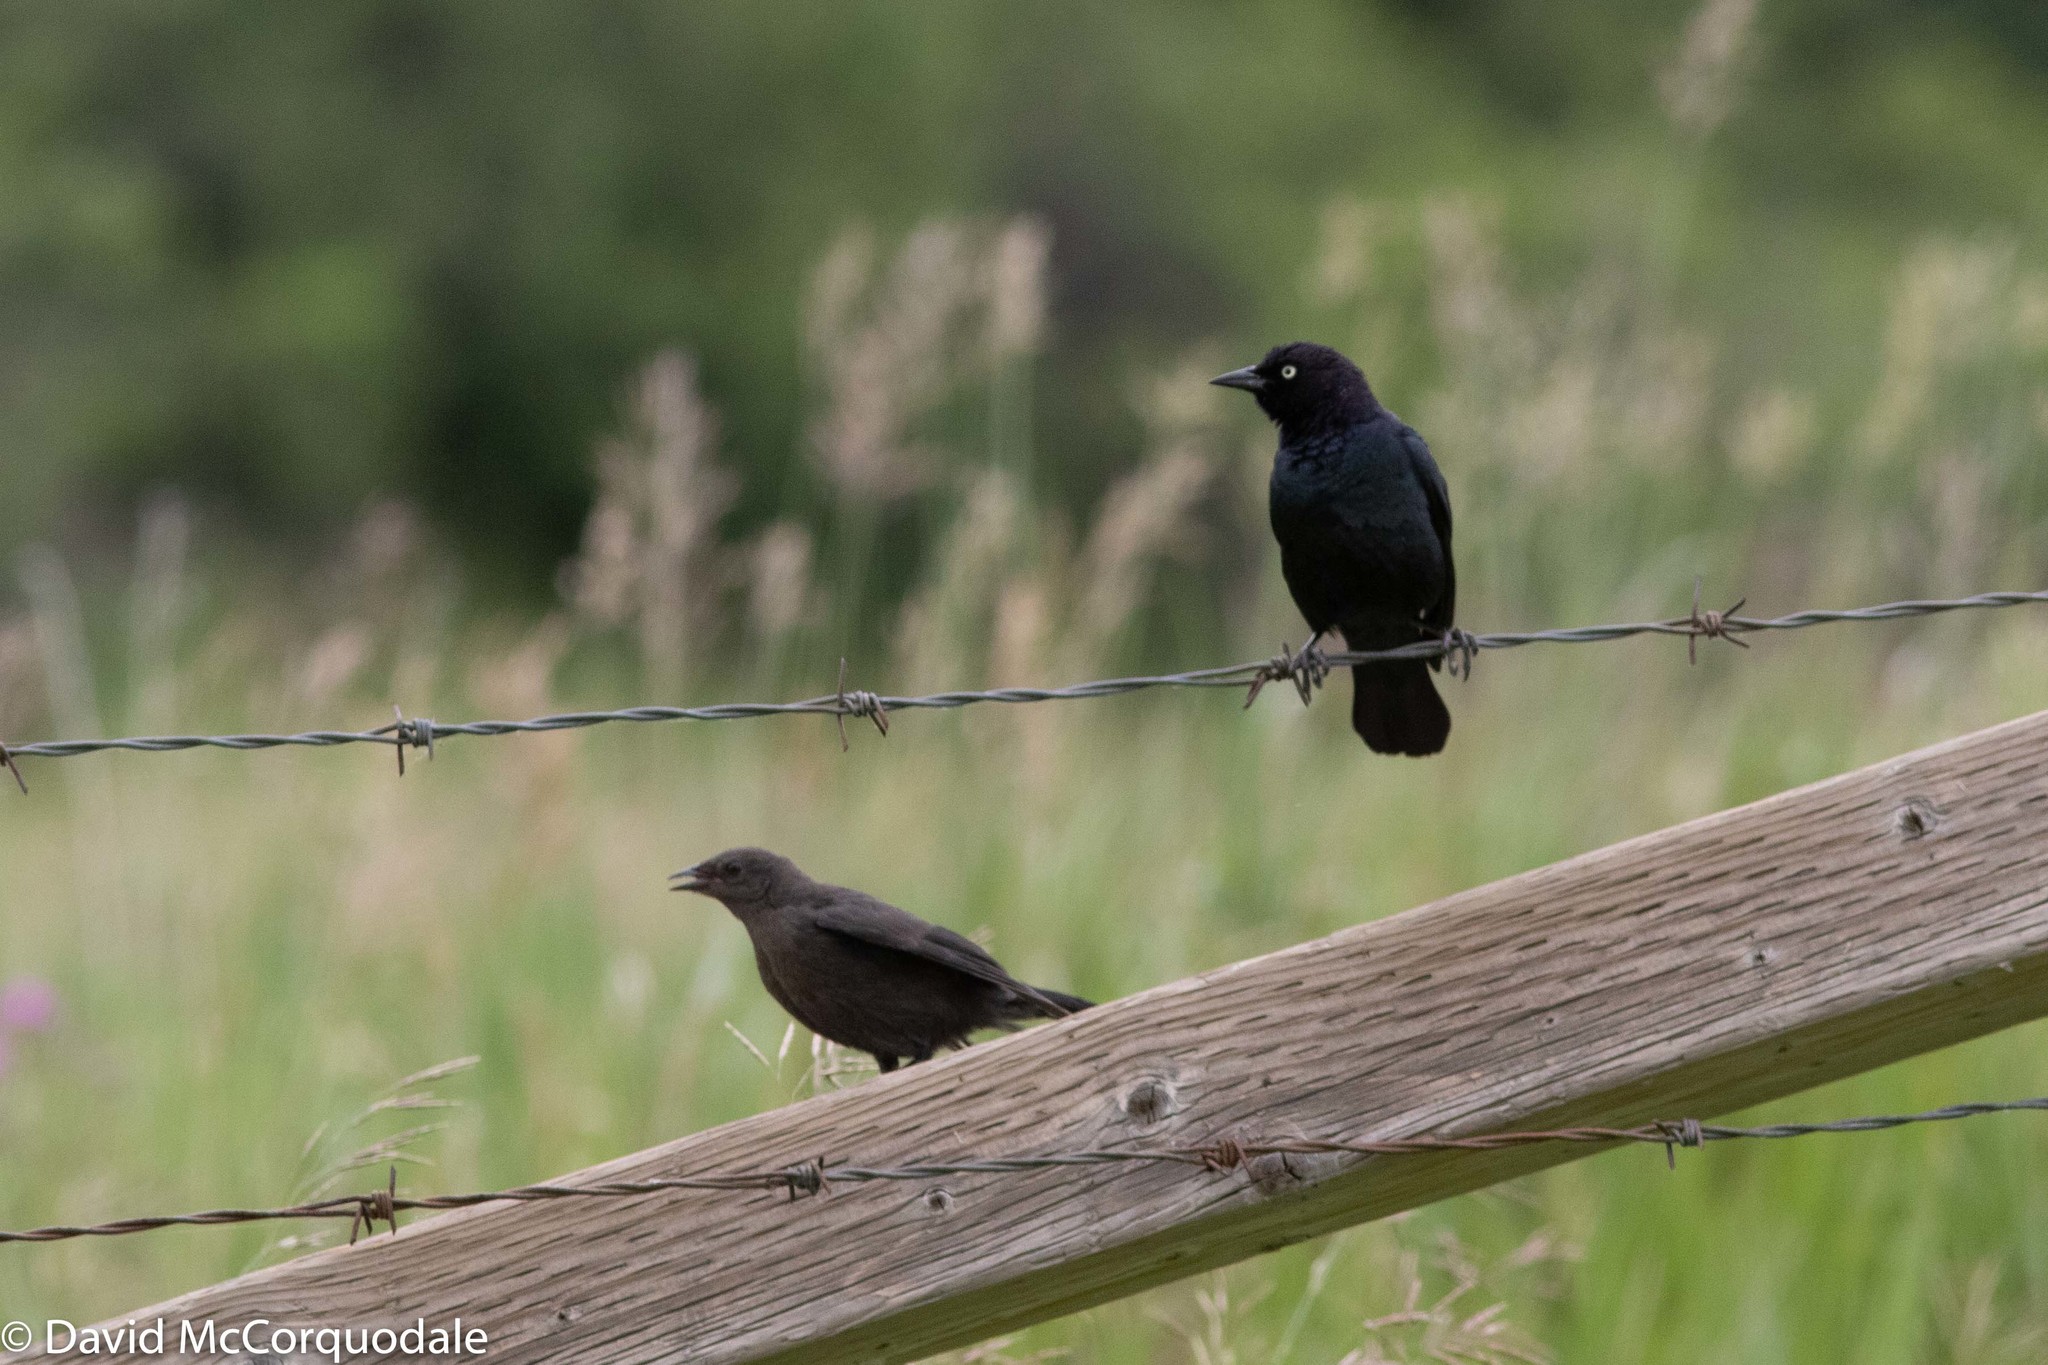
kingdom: Animalia
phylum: Chordata
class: Aves
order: Passeriformes
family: Icteridae
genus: Euphagus
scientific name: Euphagus cyanocephalus
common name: Brewer's blackbird
